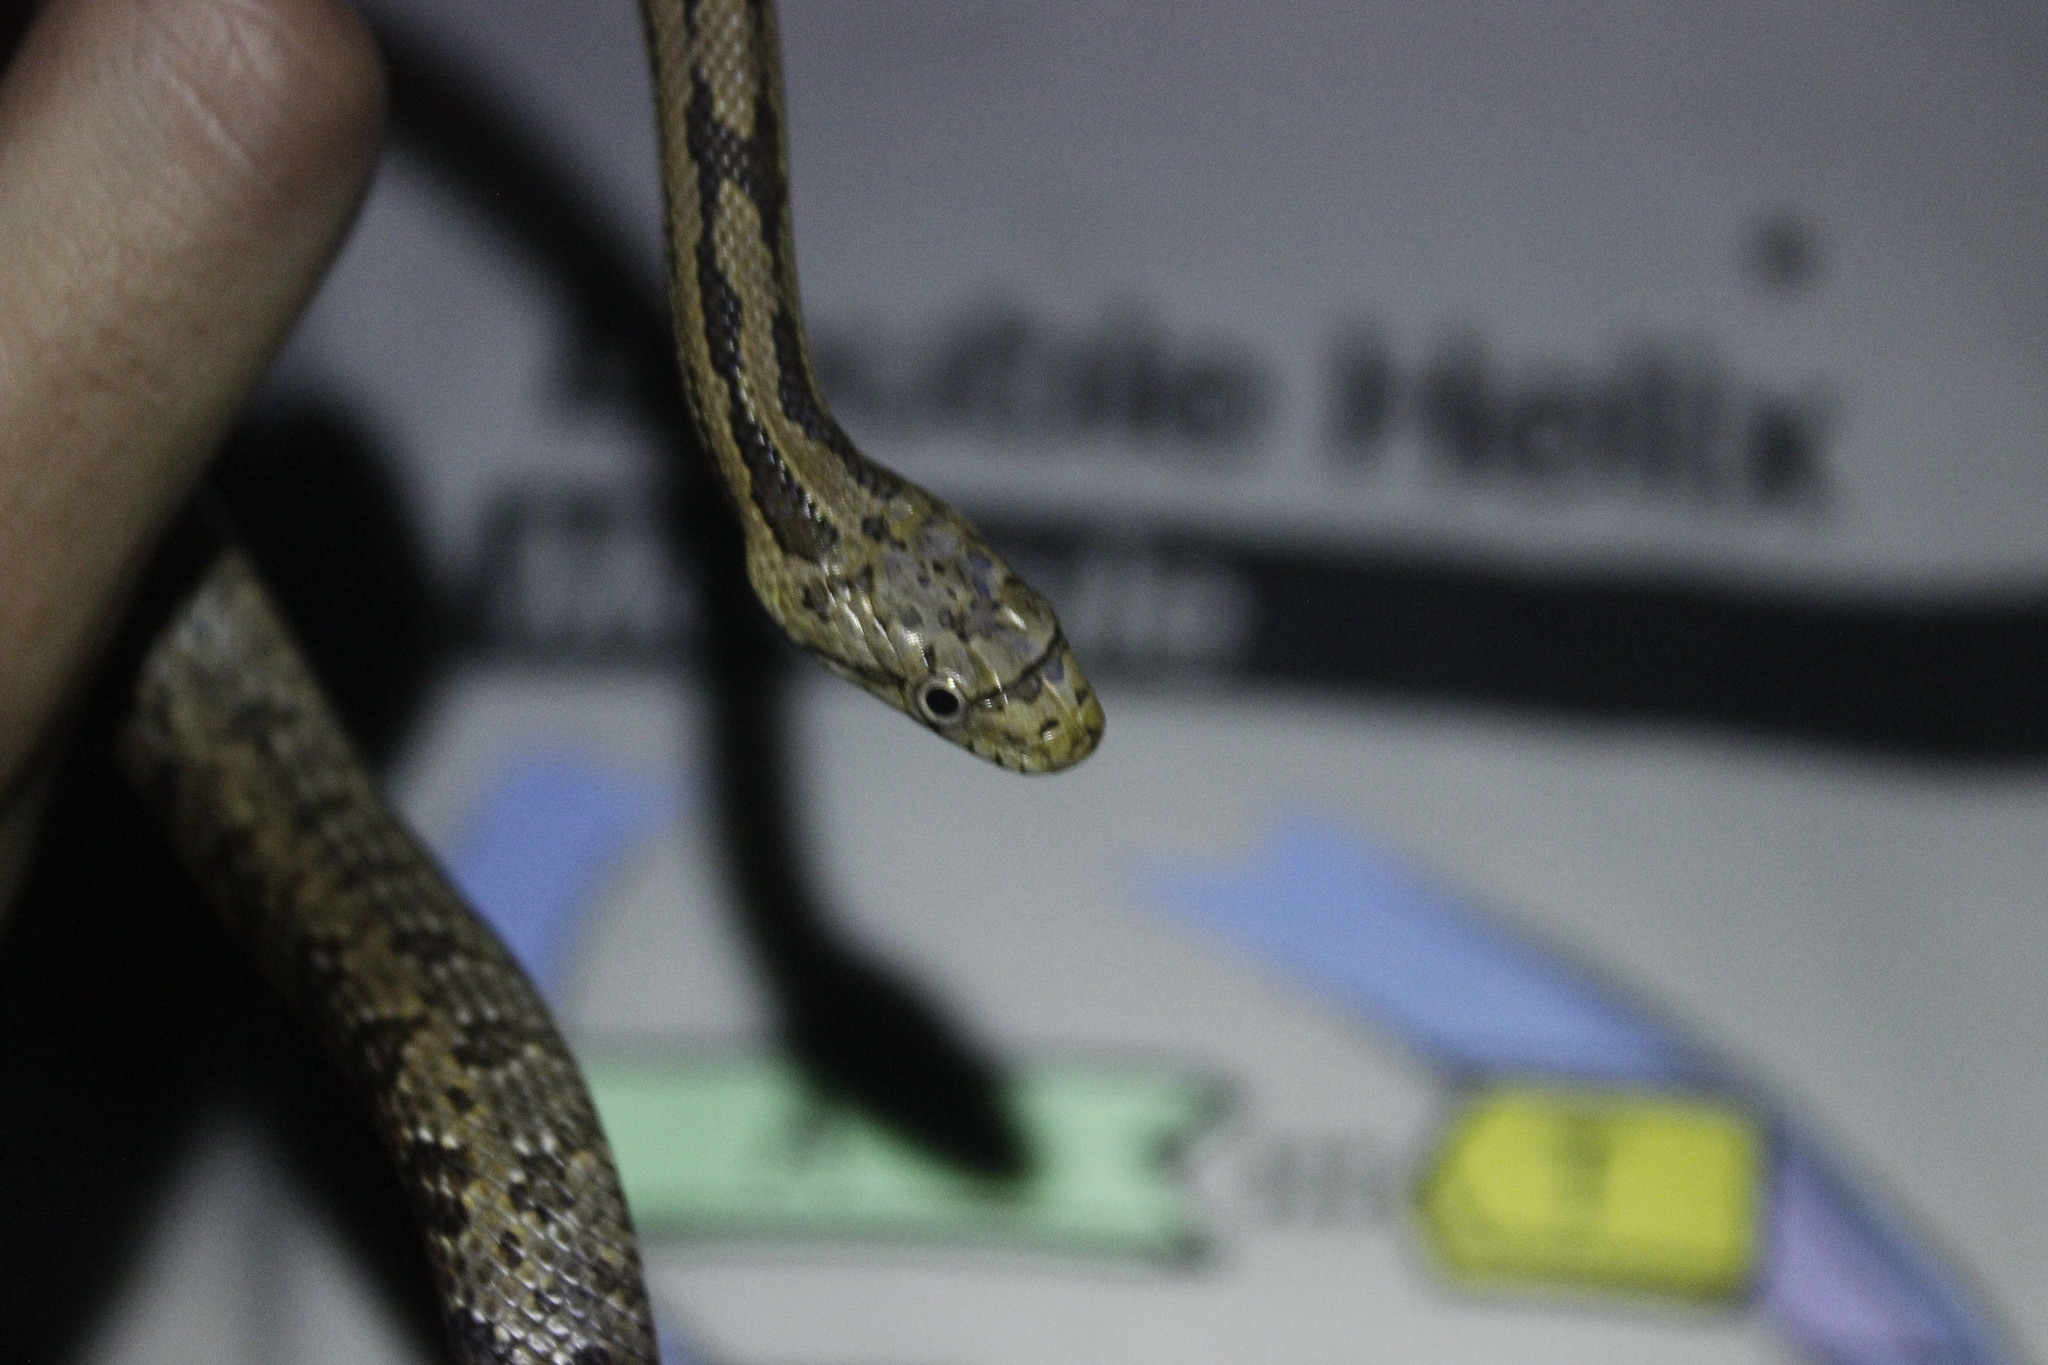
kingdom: Animalia
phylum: Chordata
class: Squamata
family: Colubridae
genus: Pantherophis
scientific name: Pantherophis alleghaniensis
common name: Eastern rat snake
